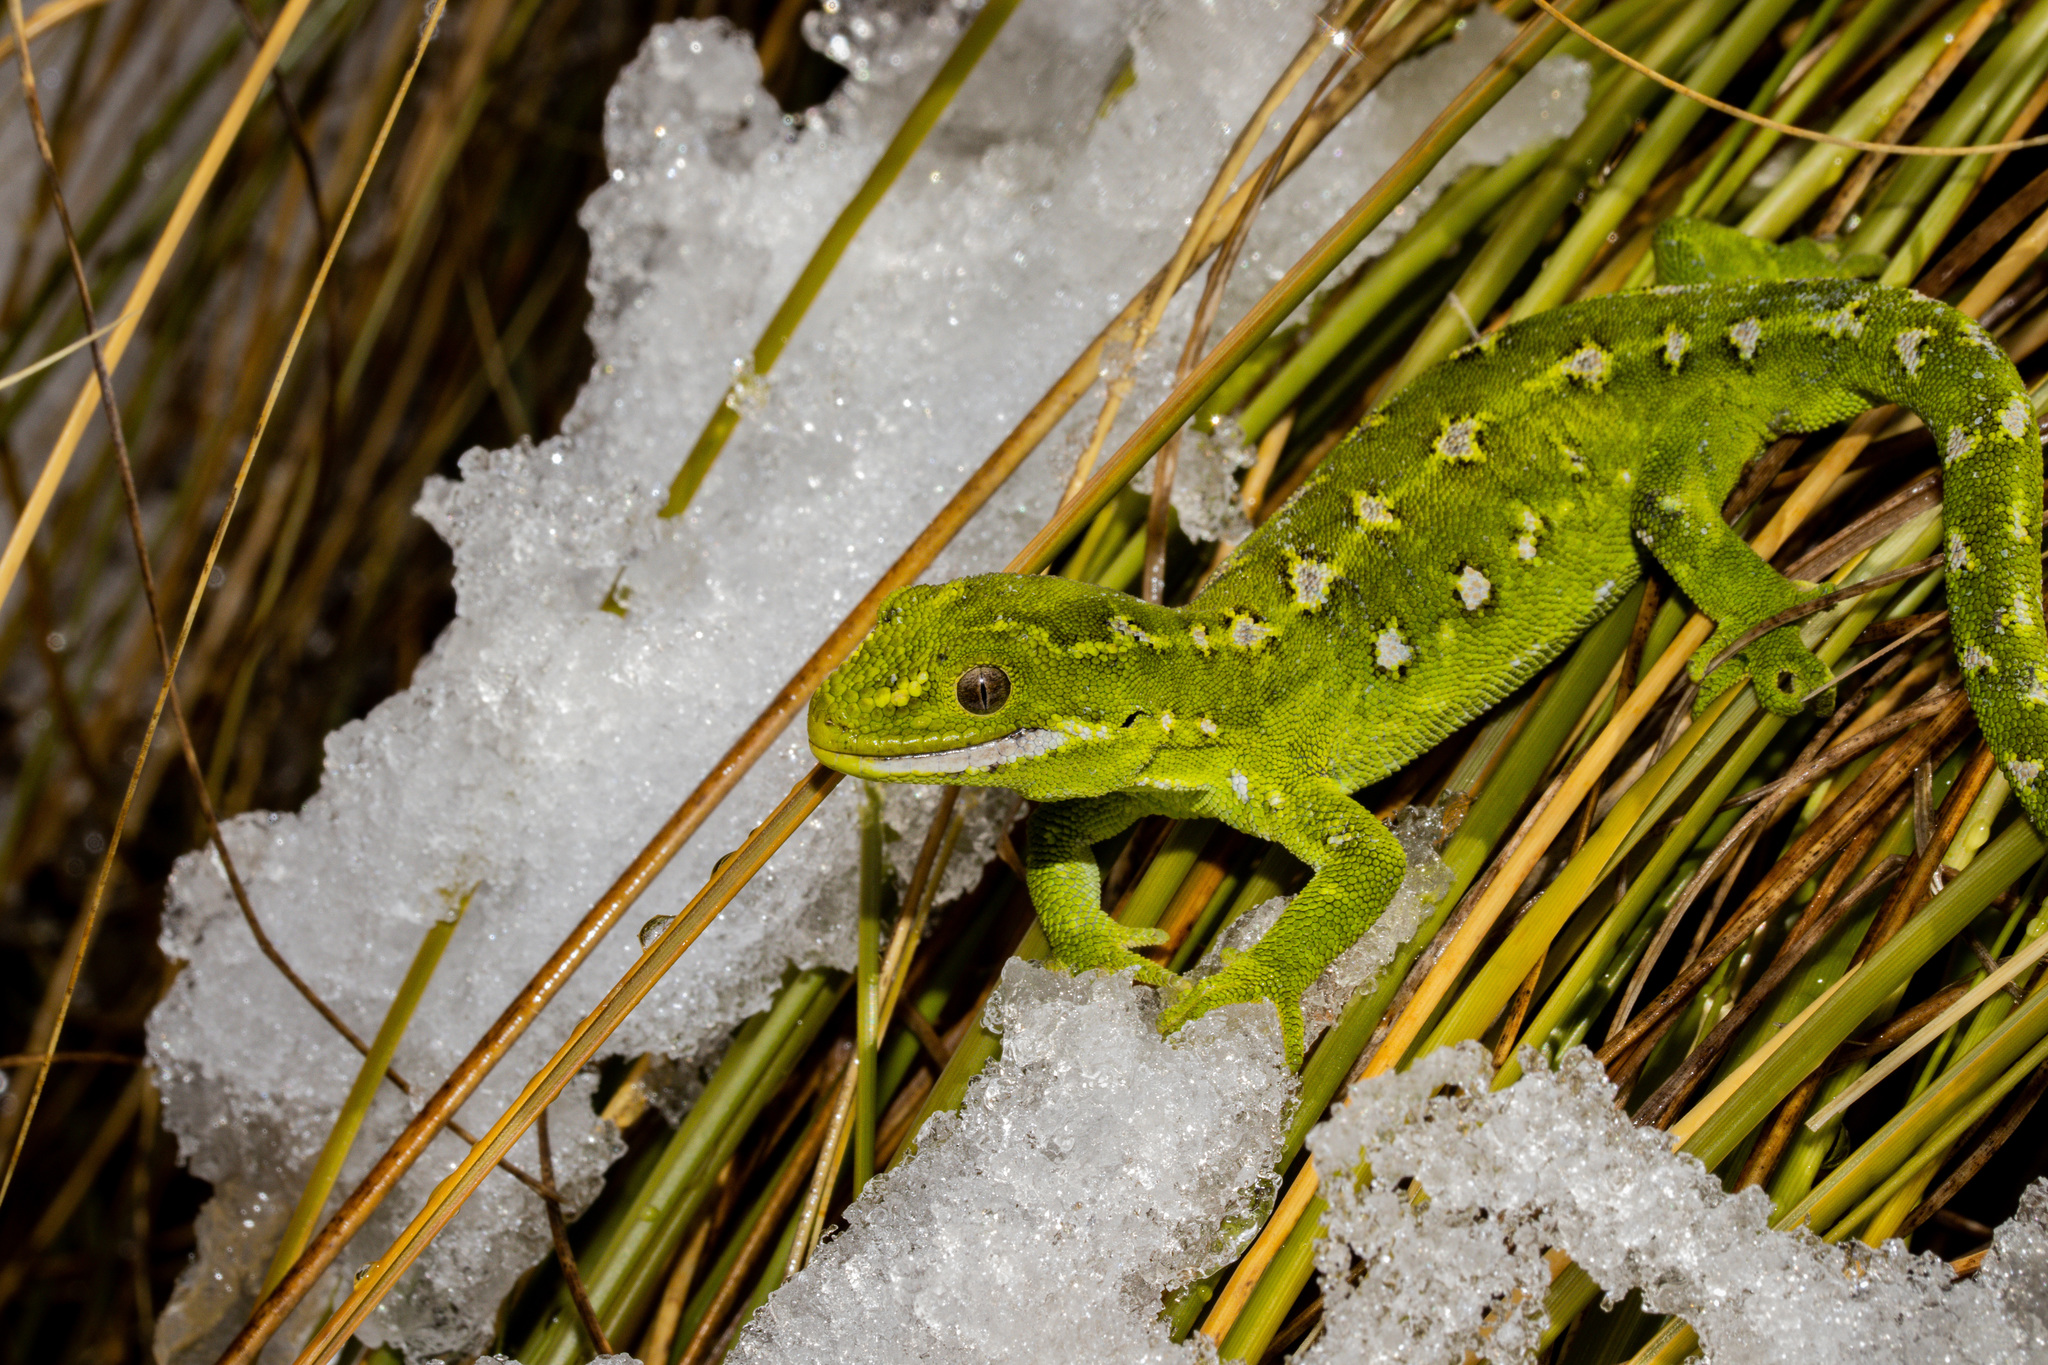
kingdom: Animalia
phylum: Chordata
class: Squamata
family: Diplodactylidae
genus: Naultinus
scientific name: Naultinus gemmeus
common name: Jewelled gecko
